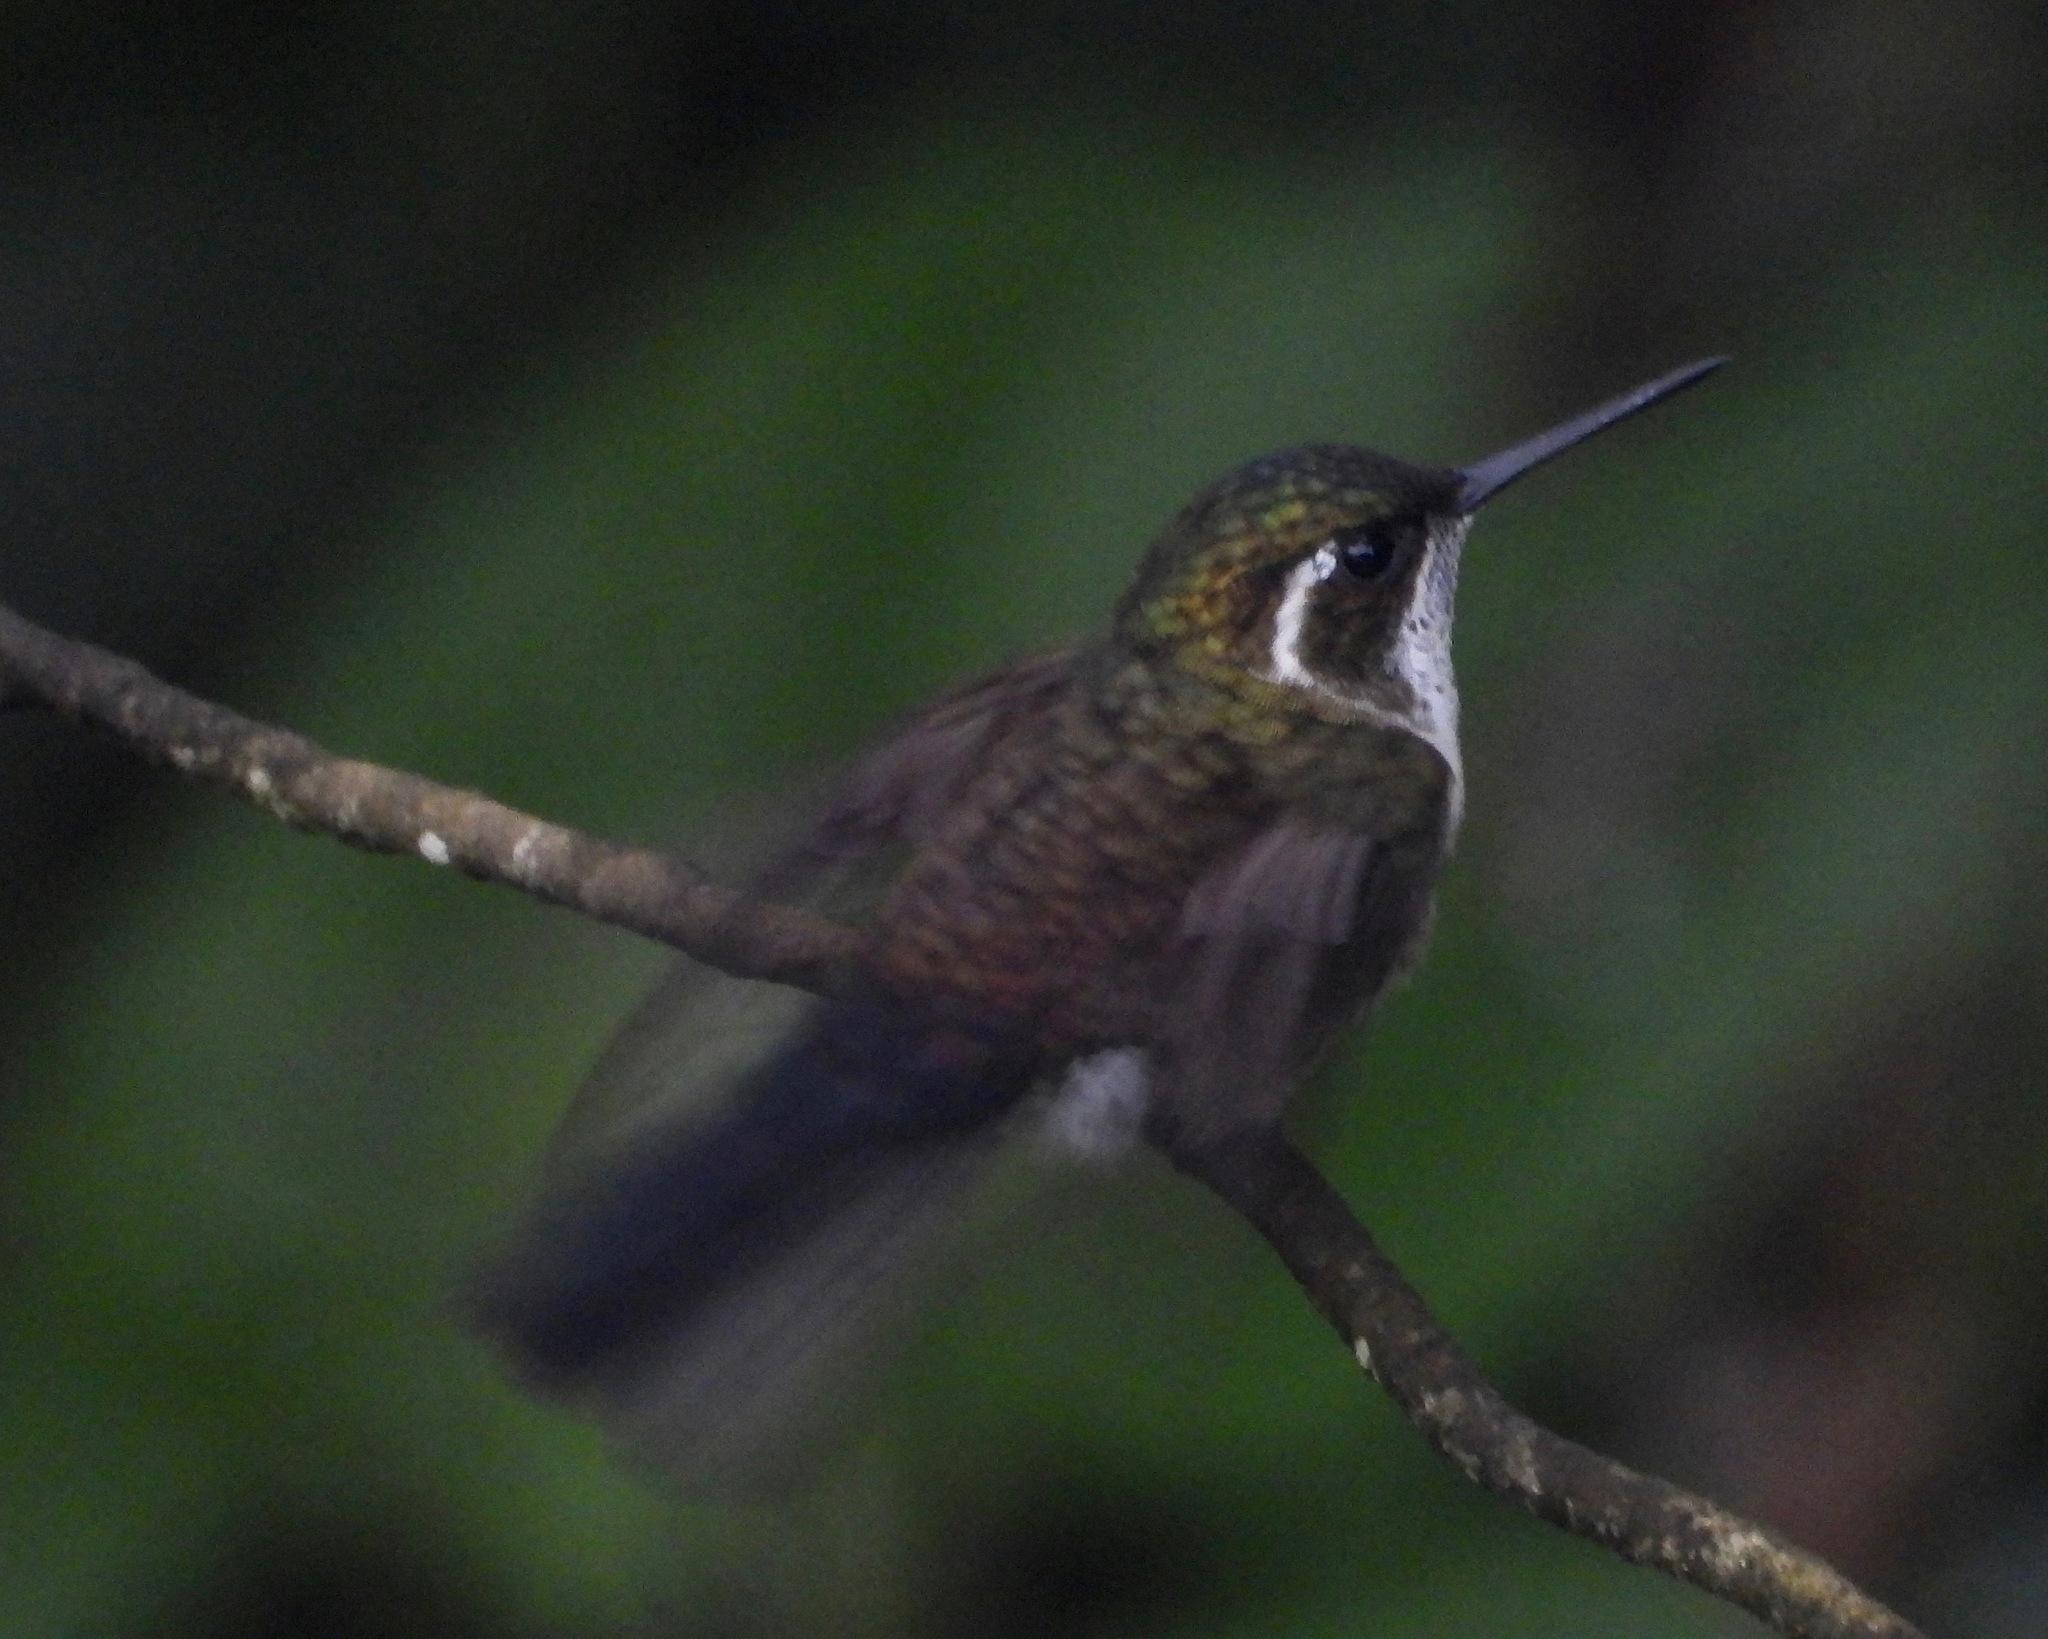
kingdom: Animalia
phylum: Chordata
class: Aves
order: Apodiformes
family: Trochilidae
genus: Lampornis
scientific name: Lampornis viridipallens
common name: Green-throated mountain-gem
